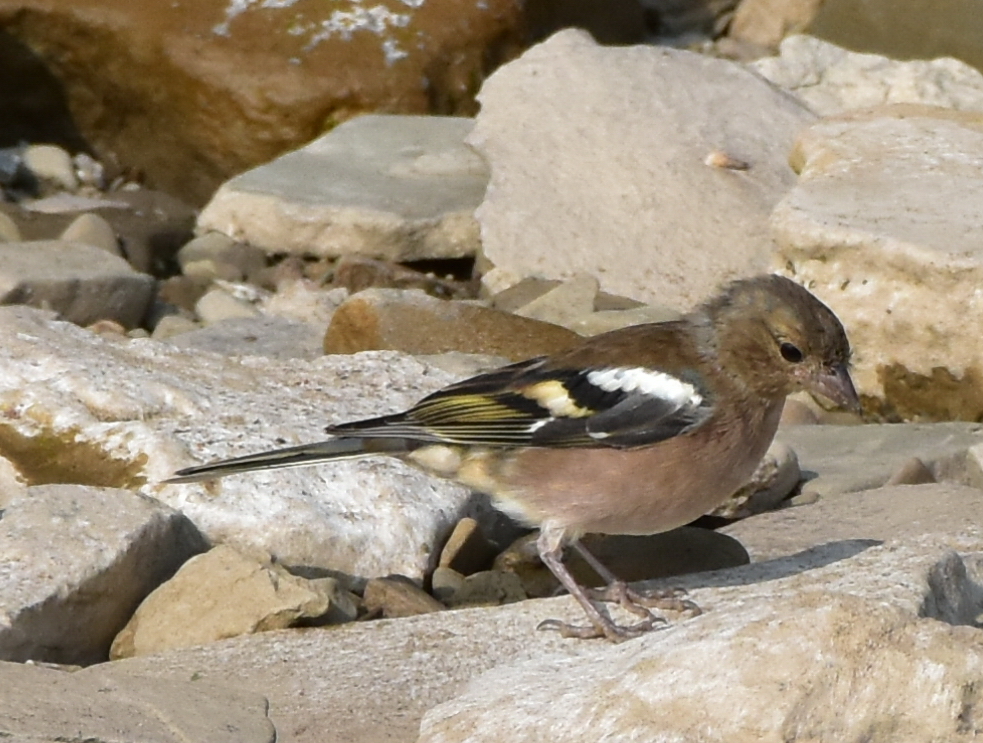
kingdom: Animalia
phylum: Chordata
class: Aves
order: Passeriformes
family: Fringillidae
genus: Fringilla
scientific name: Fringilla coelebs
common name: Common chaffinch
